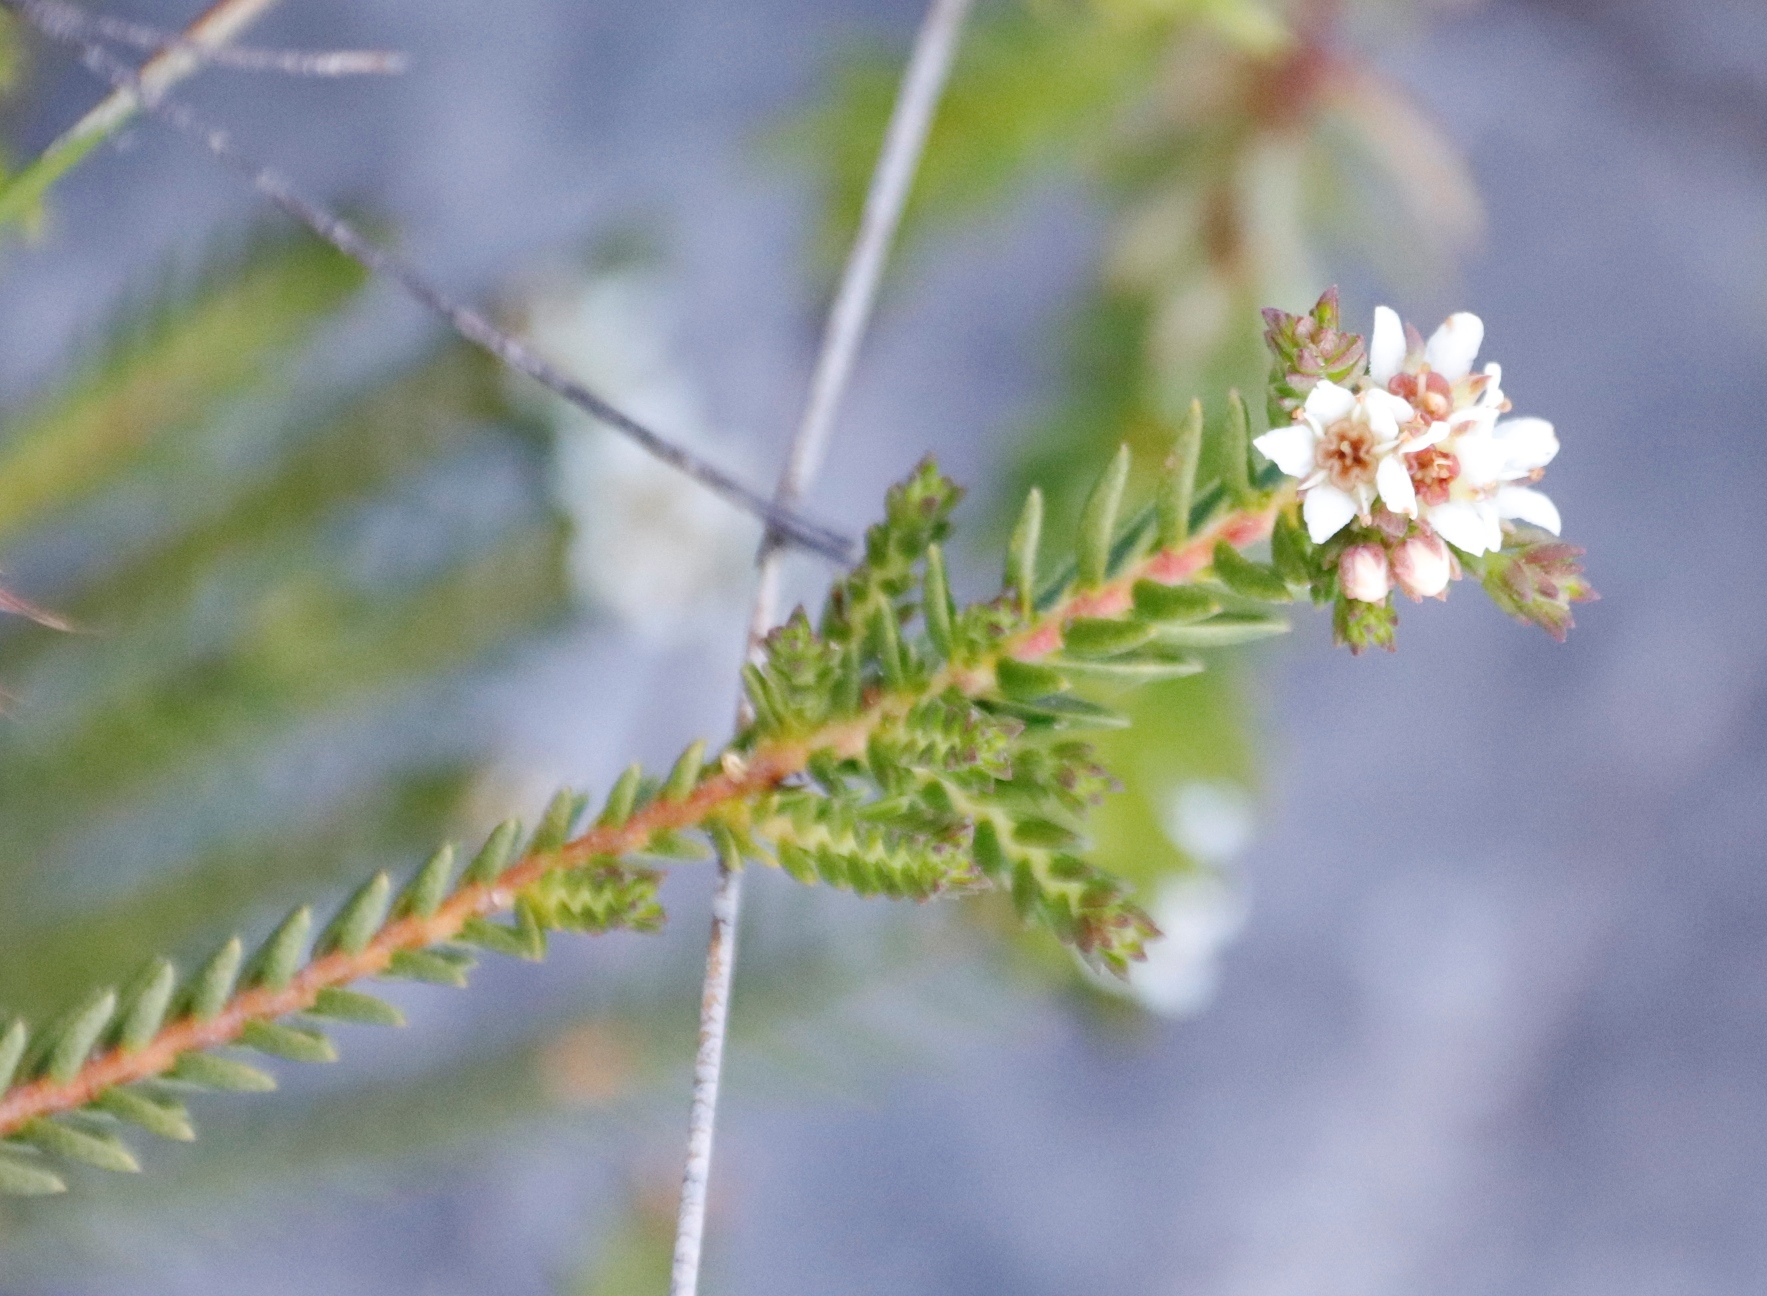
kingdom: Plantae
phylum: Tracheophyta
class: Magnoliopsida
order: Sapindales
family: Rutaceae
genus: Diosma
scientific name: Diosma oppositifolia
